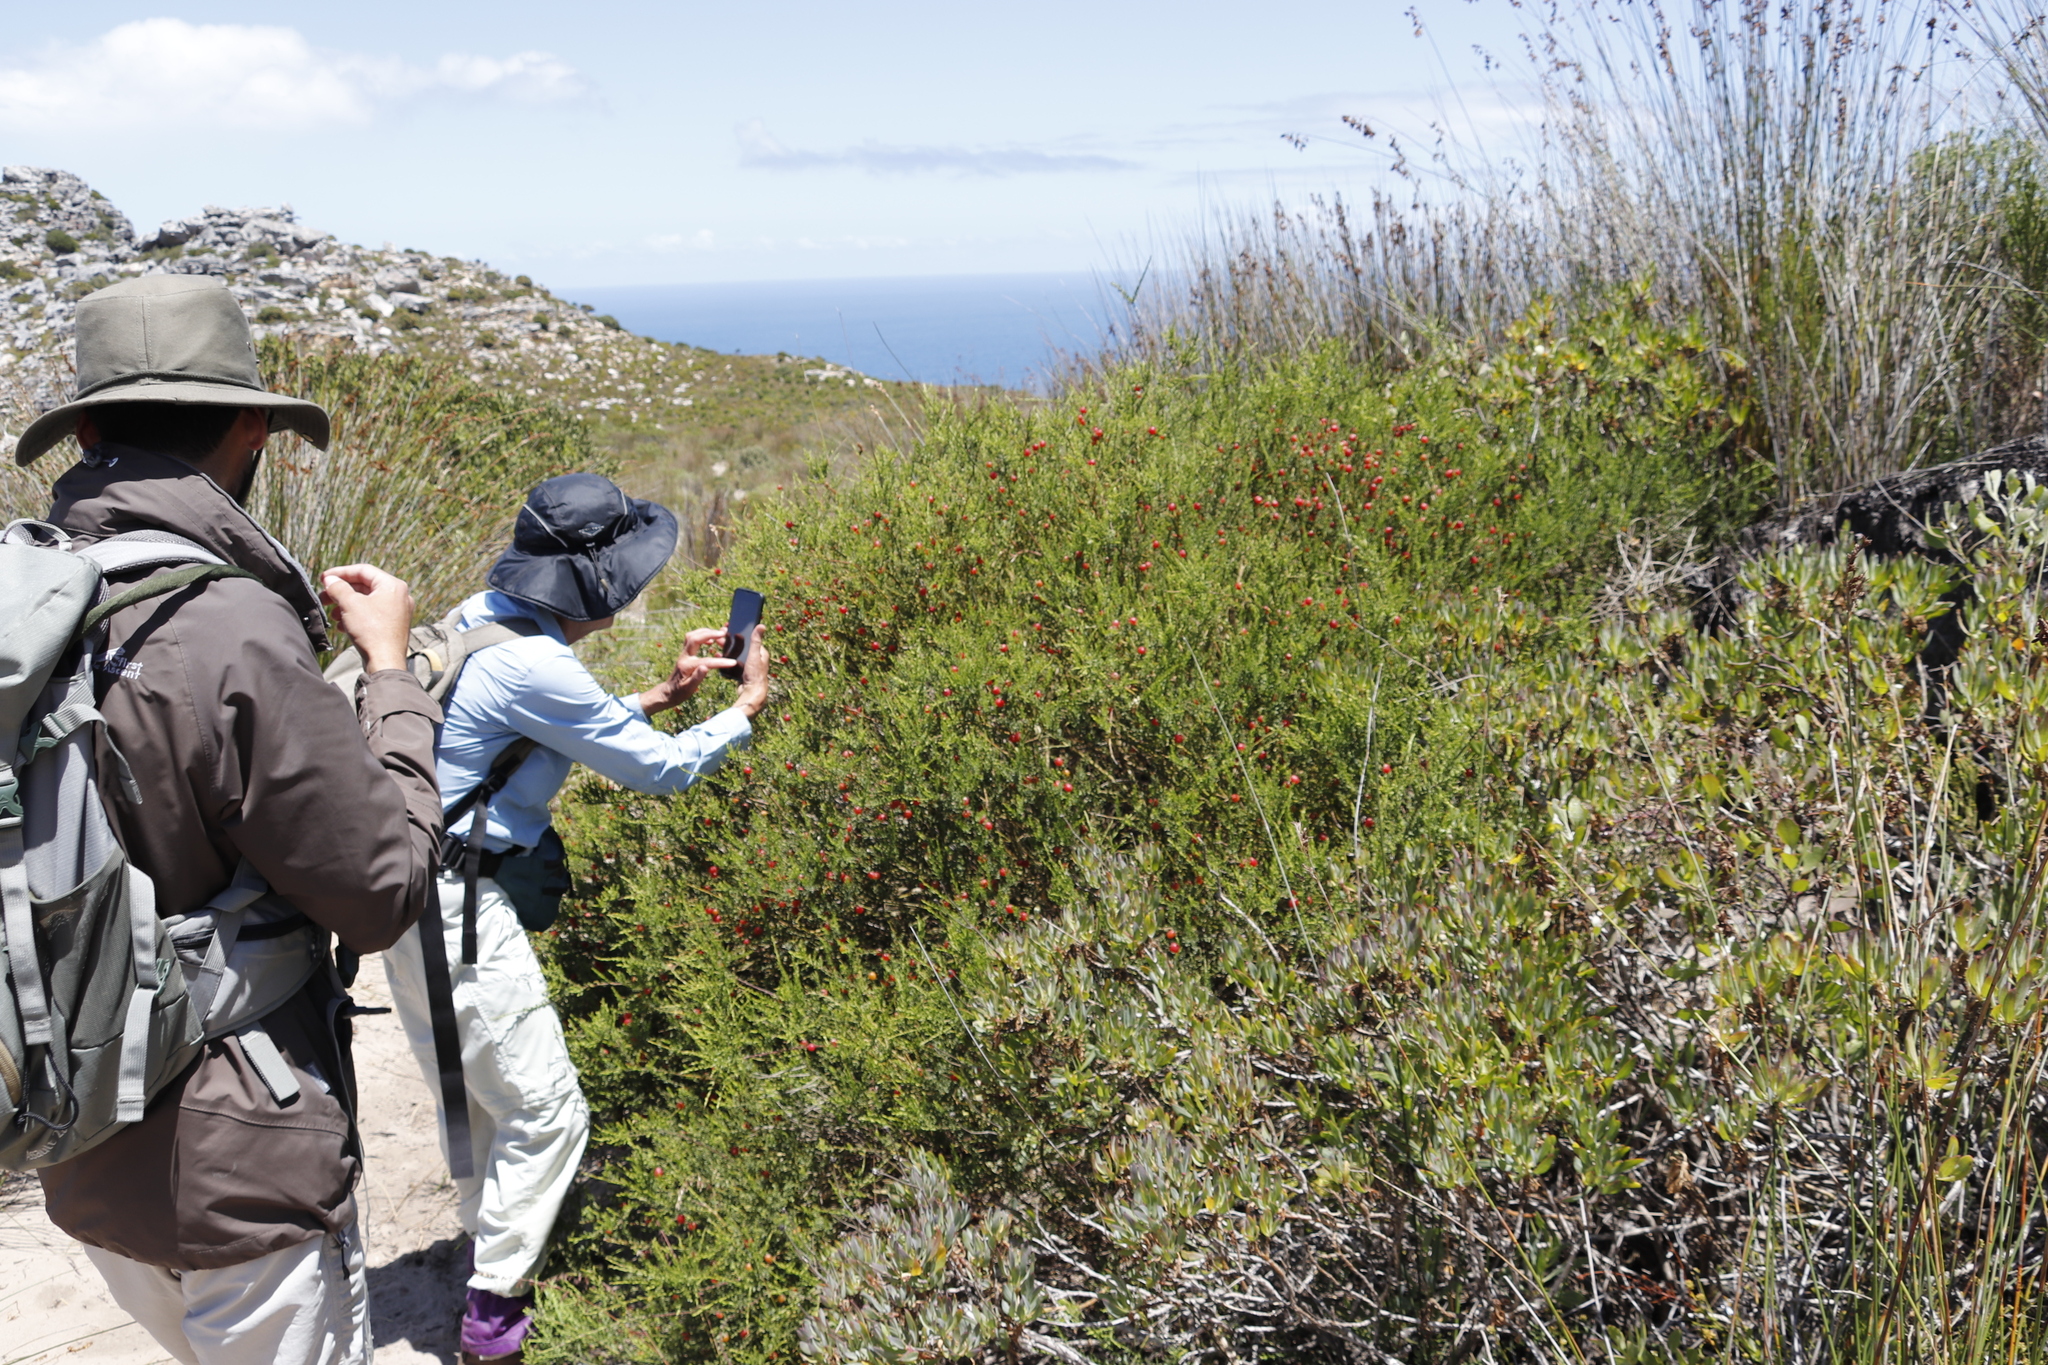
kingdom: Plantae
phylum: Tracheophyta
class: Magnoliopsida
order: Fabales
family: Polygalaceae
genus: Muraltia
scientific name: Muraltia spinosa
